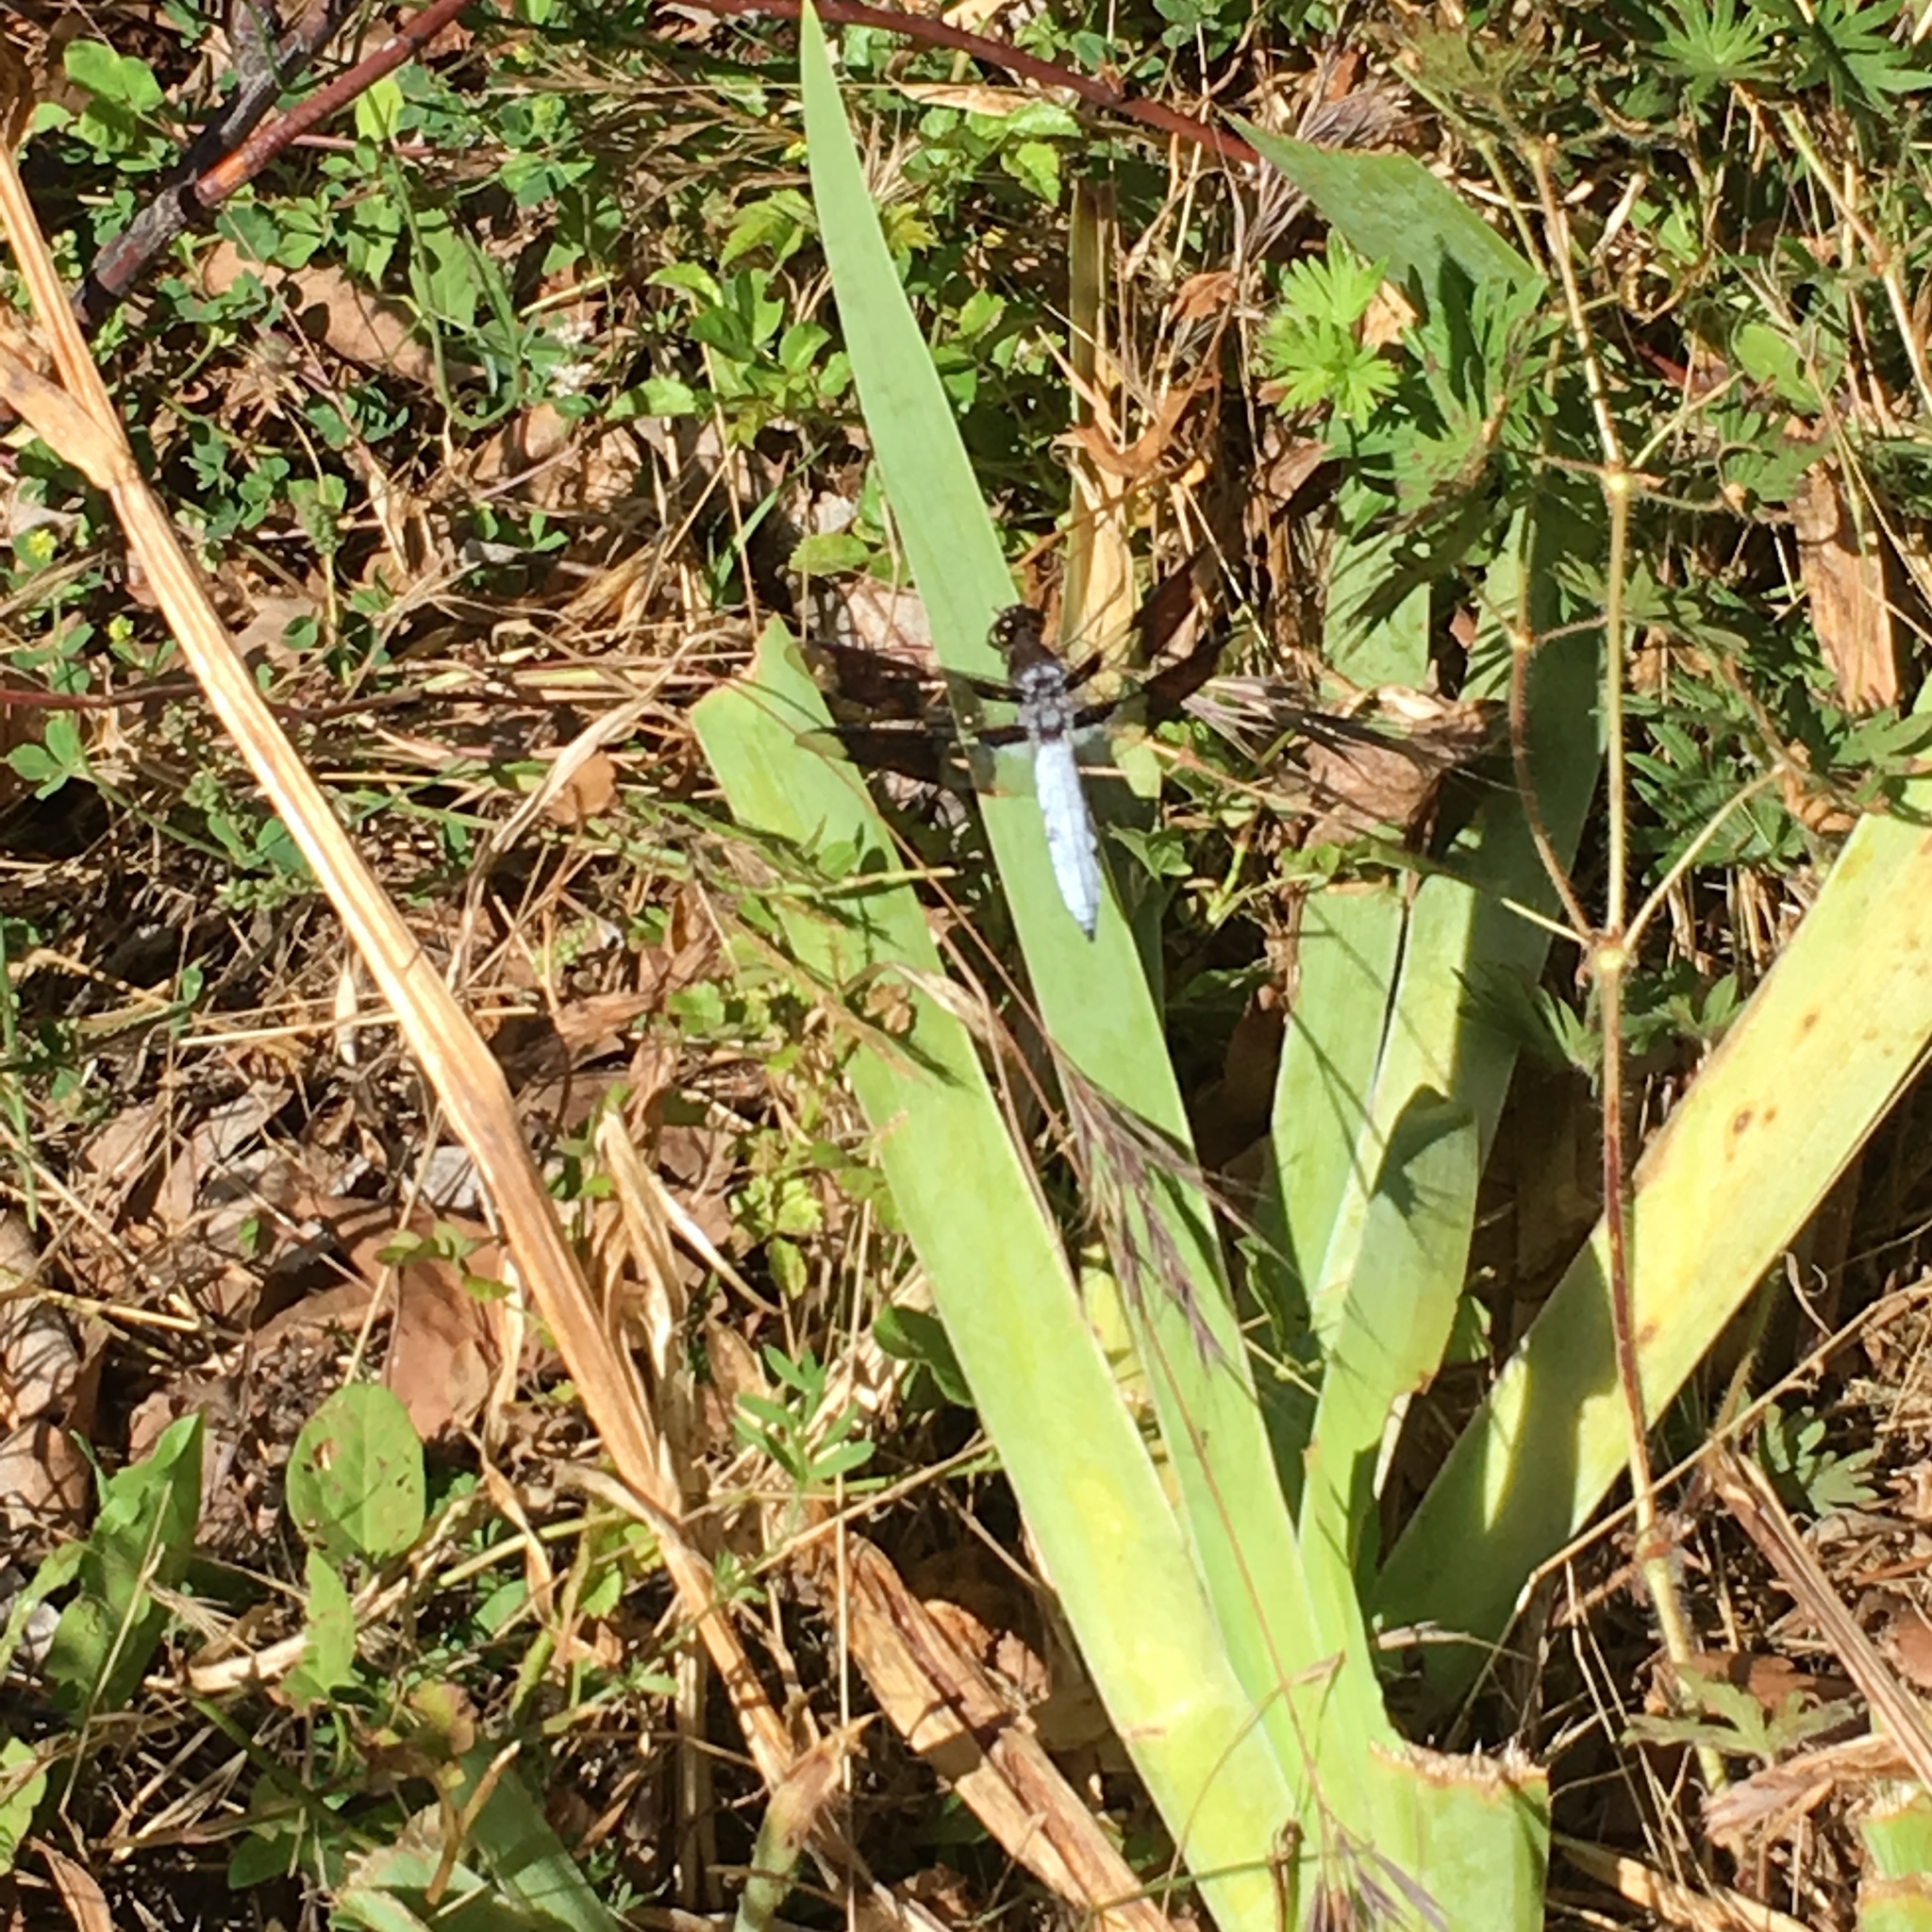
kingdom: Animalia
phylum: Arthropoda
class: Insecta
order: Odonata
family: Libellulidae
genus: Plathemis
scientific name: Plathemis lydia
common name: Common whitetail
